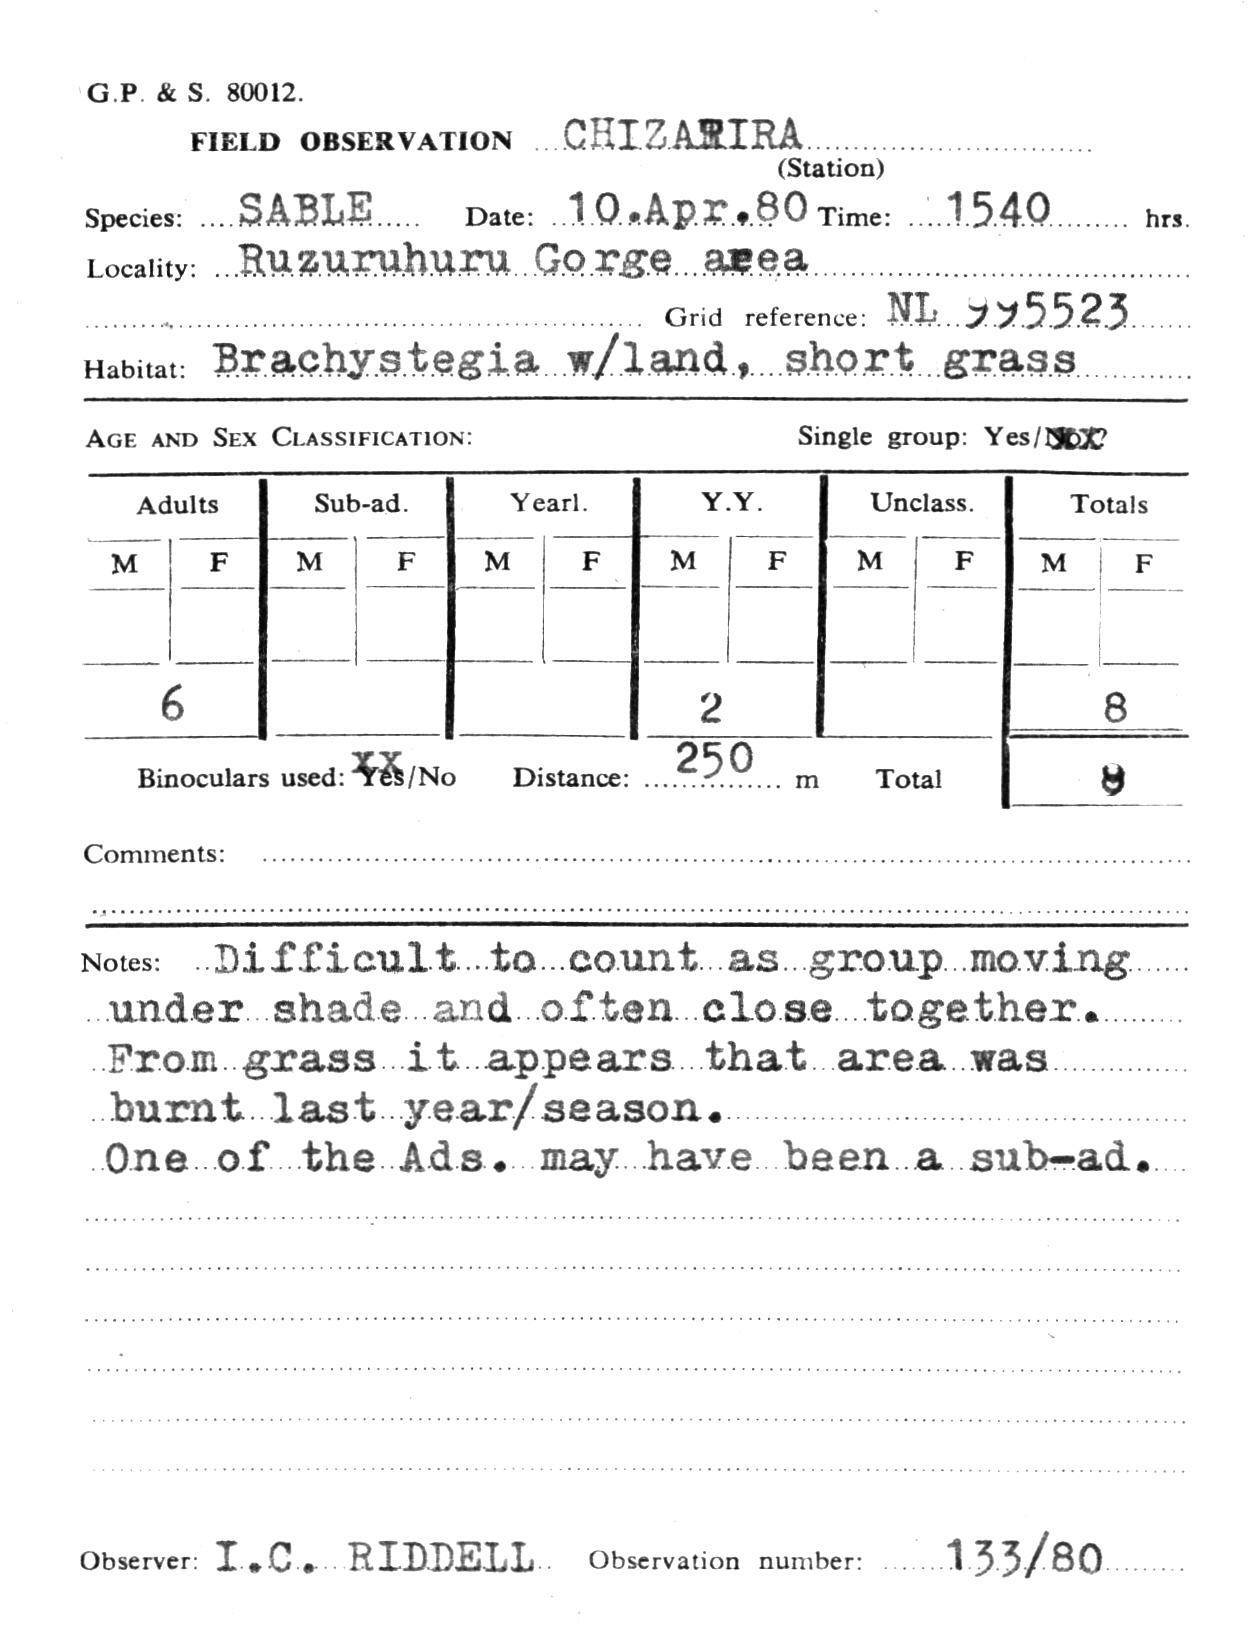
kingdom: Animalia
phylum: Chordata
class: Mammalia
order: Artiodactyla
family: Bovidae
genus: Hippotragus
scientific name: Hippotragus niger
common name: Sable antelope
